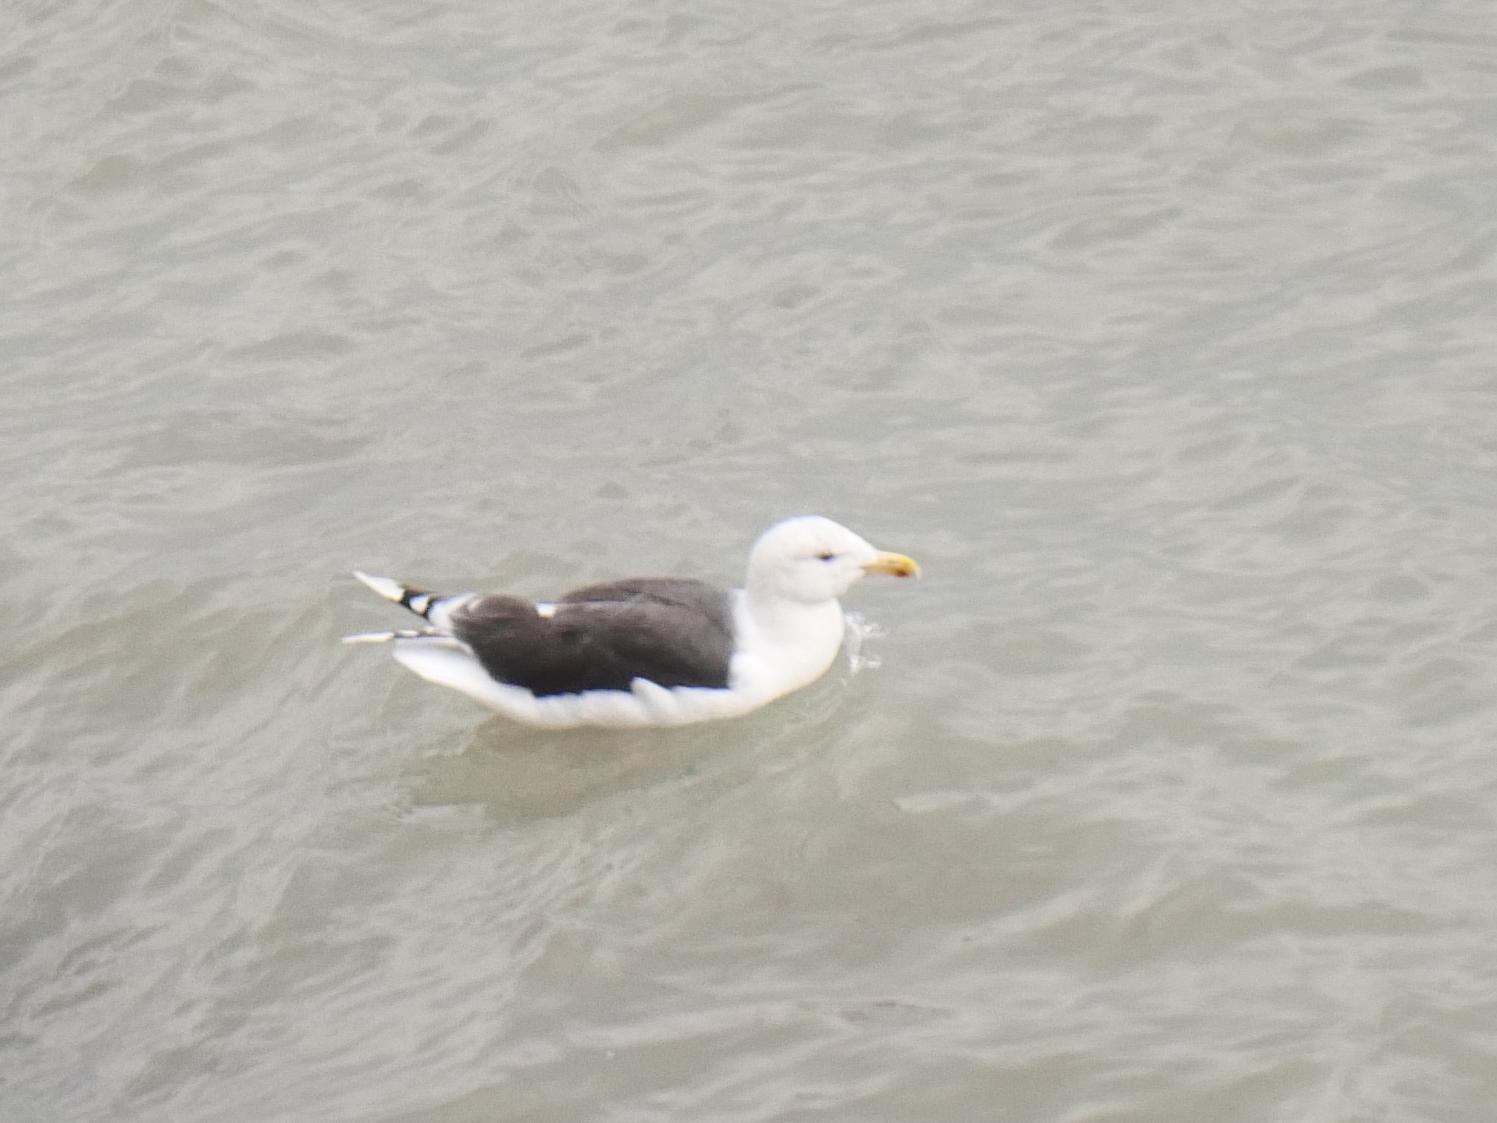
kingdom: Animalia
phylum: Chordata
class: Aves
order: Charadriiformes
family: Laridae
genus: Larus
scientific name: Larus marinus
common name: Great black-backed gull
